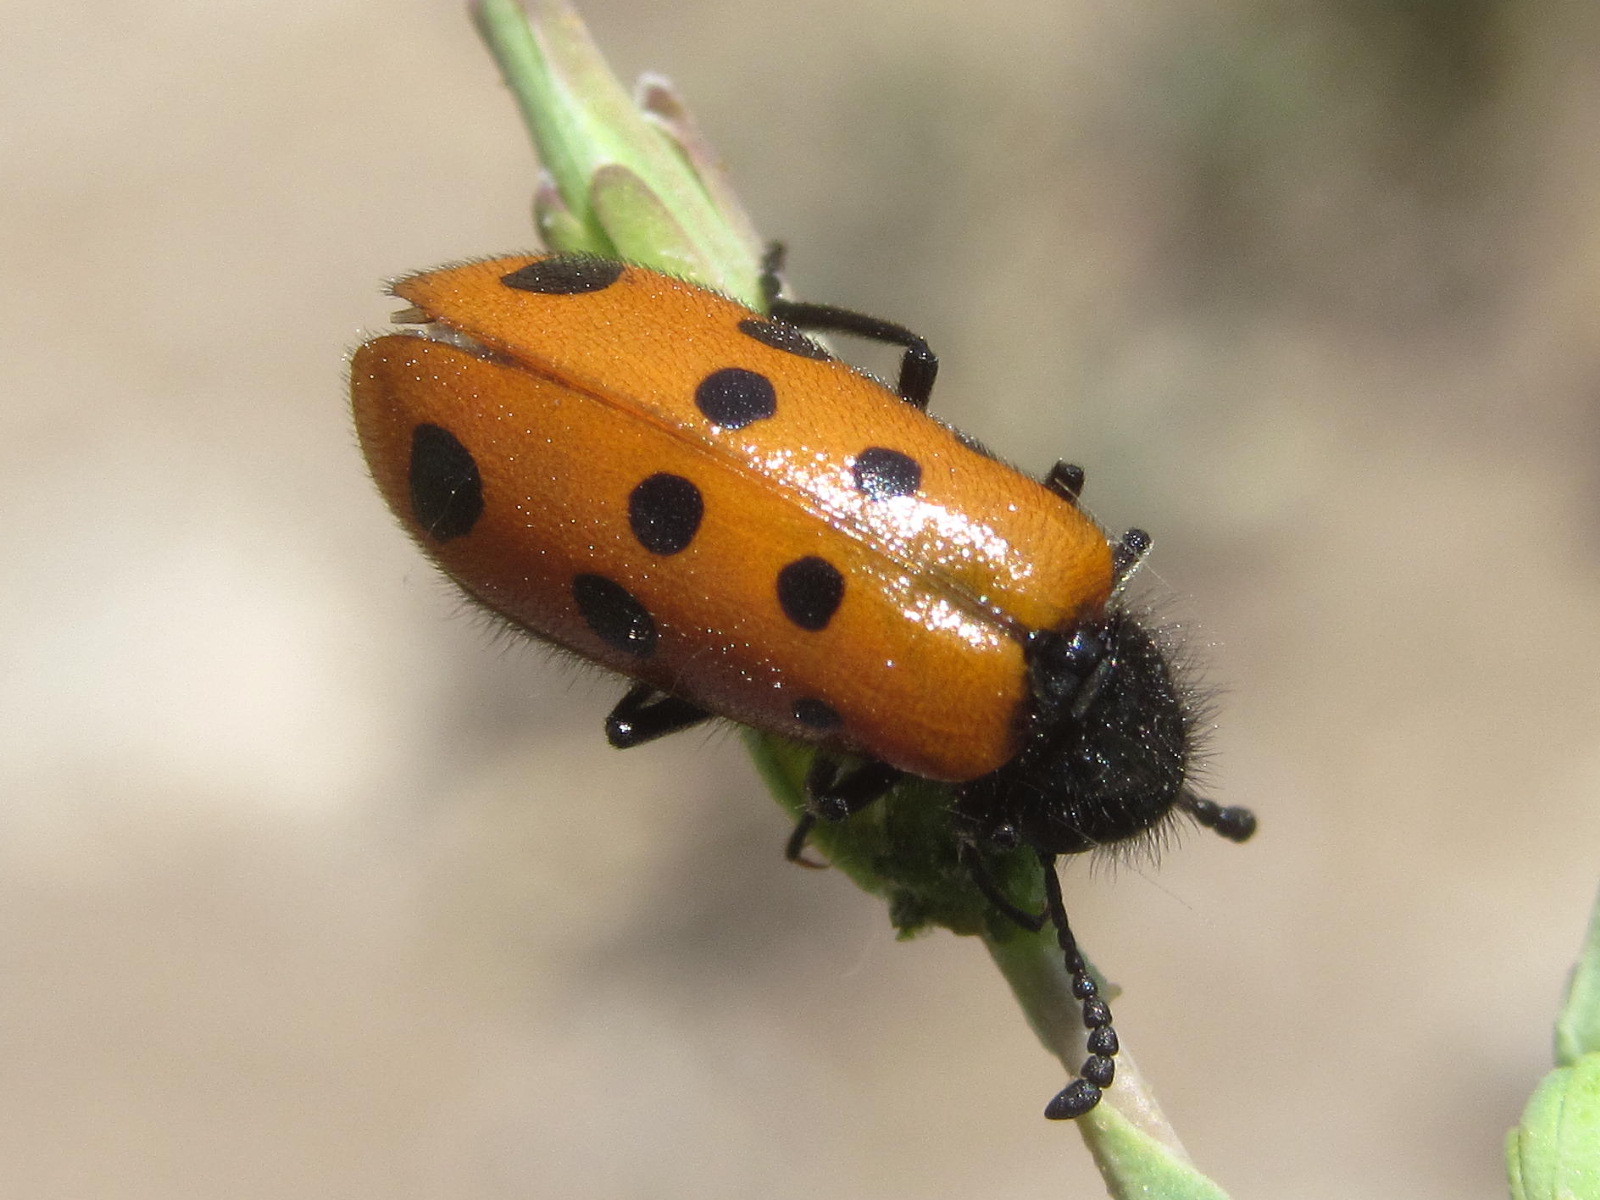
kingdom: Animalia
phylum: Arthropoda
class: Insecta
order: Coleoptera
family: Meloidae
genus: Mylabris
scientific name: Mylabris fabricii
